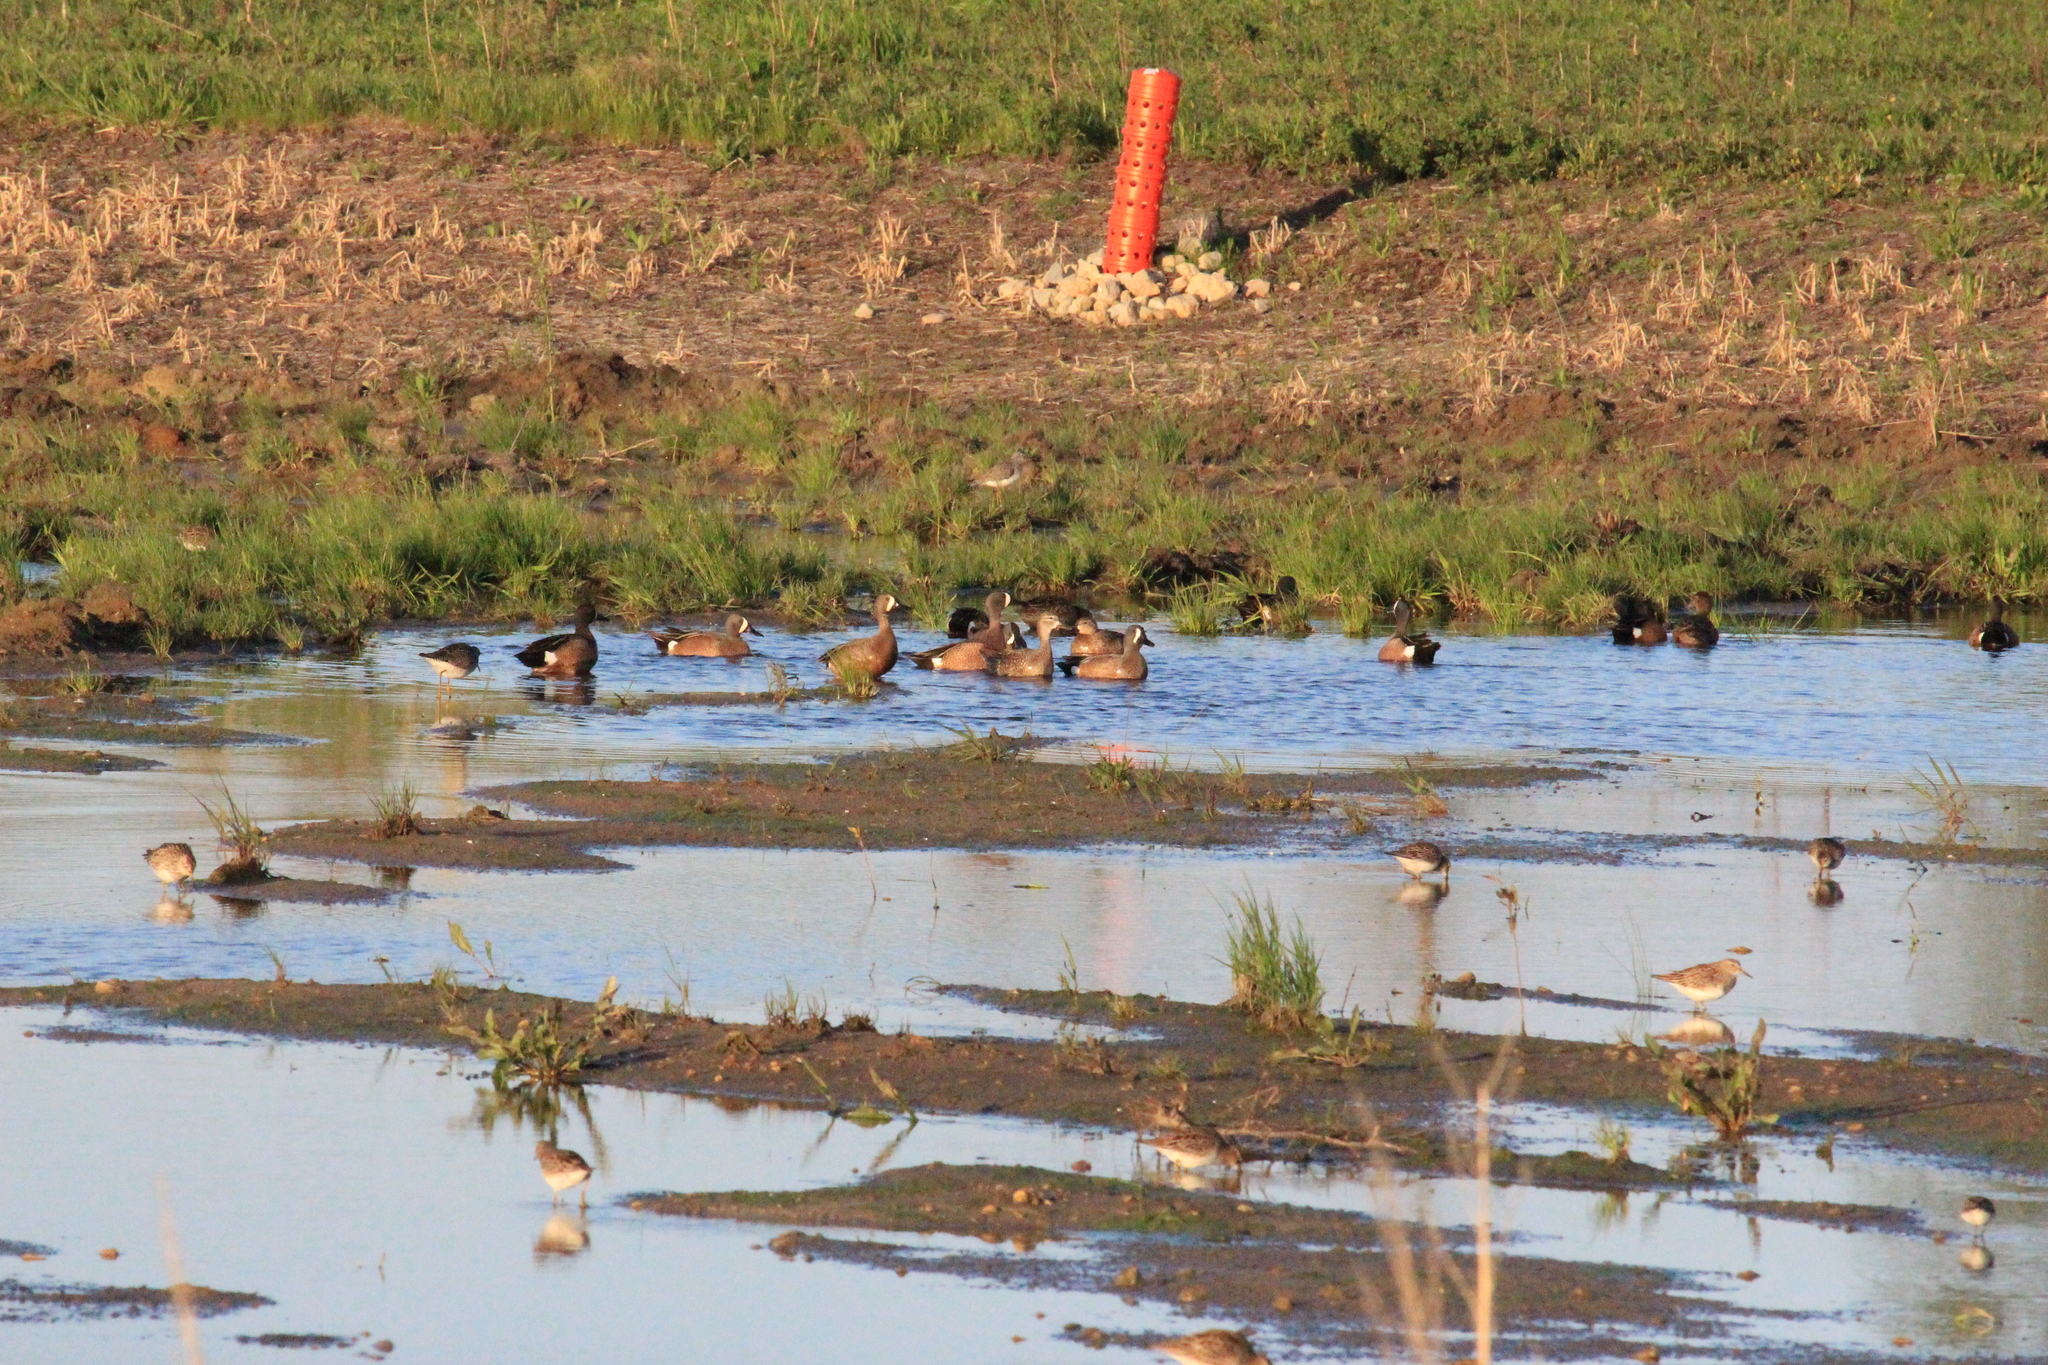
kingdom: Animalia
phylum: Chordata
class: Aves
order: Anseriformes
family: Anatidae
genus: Spatula
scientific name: Spatula discors
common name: Blue-winged teal
